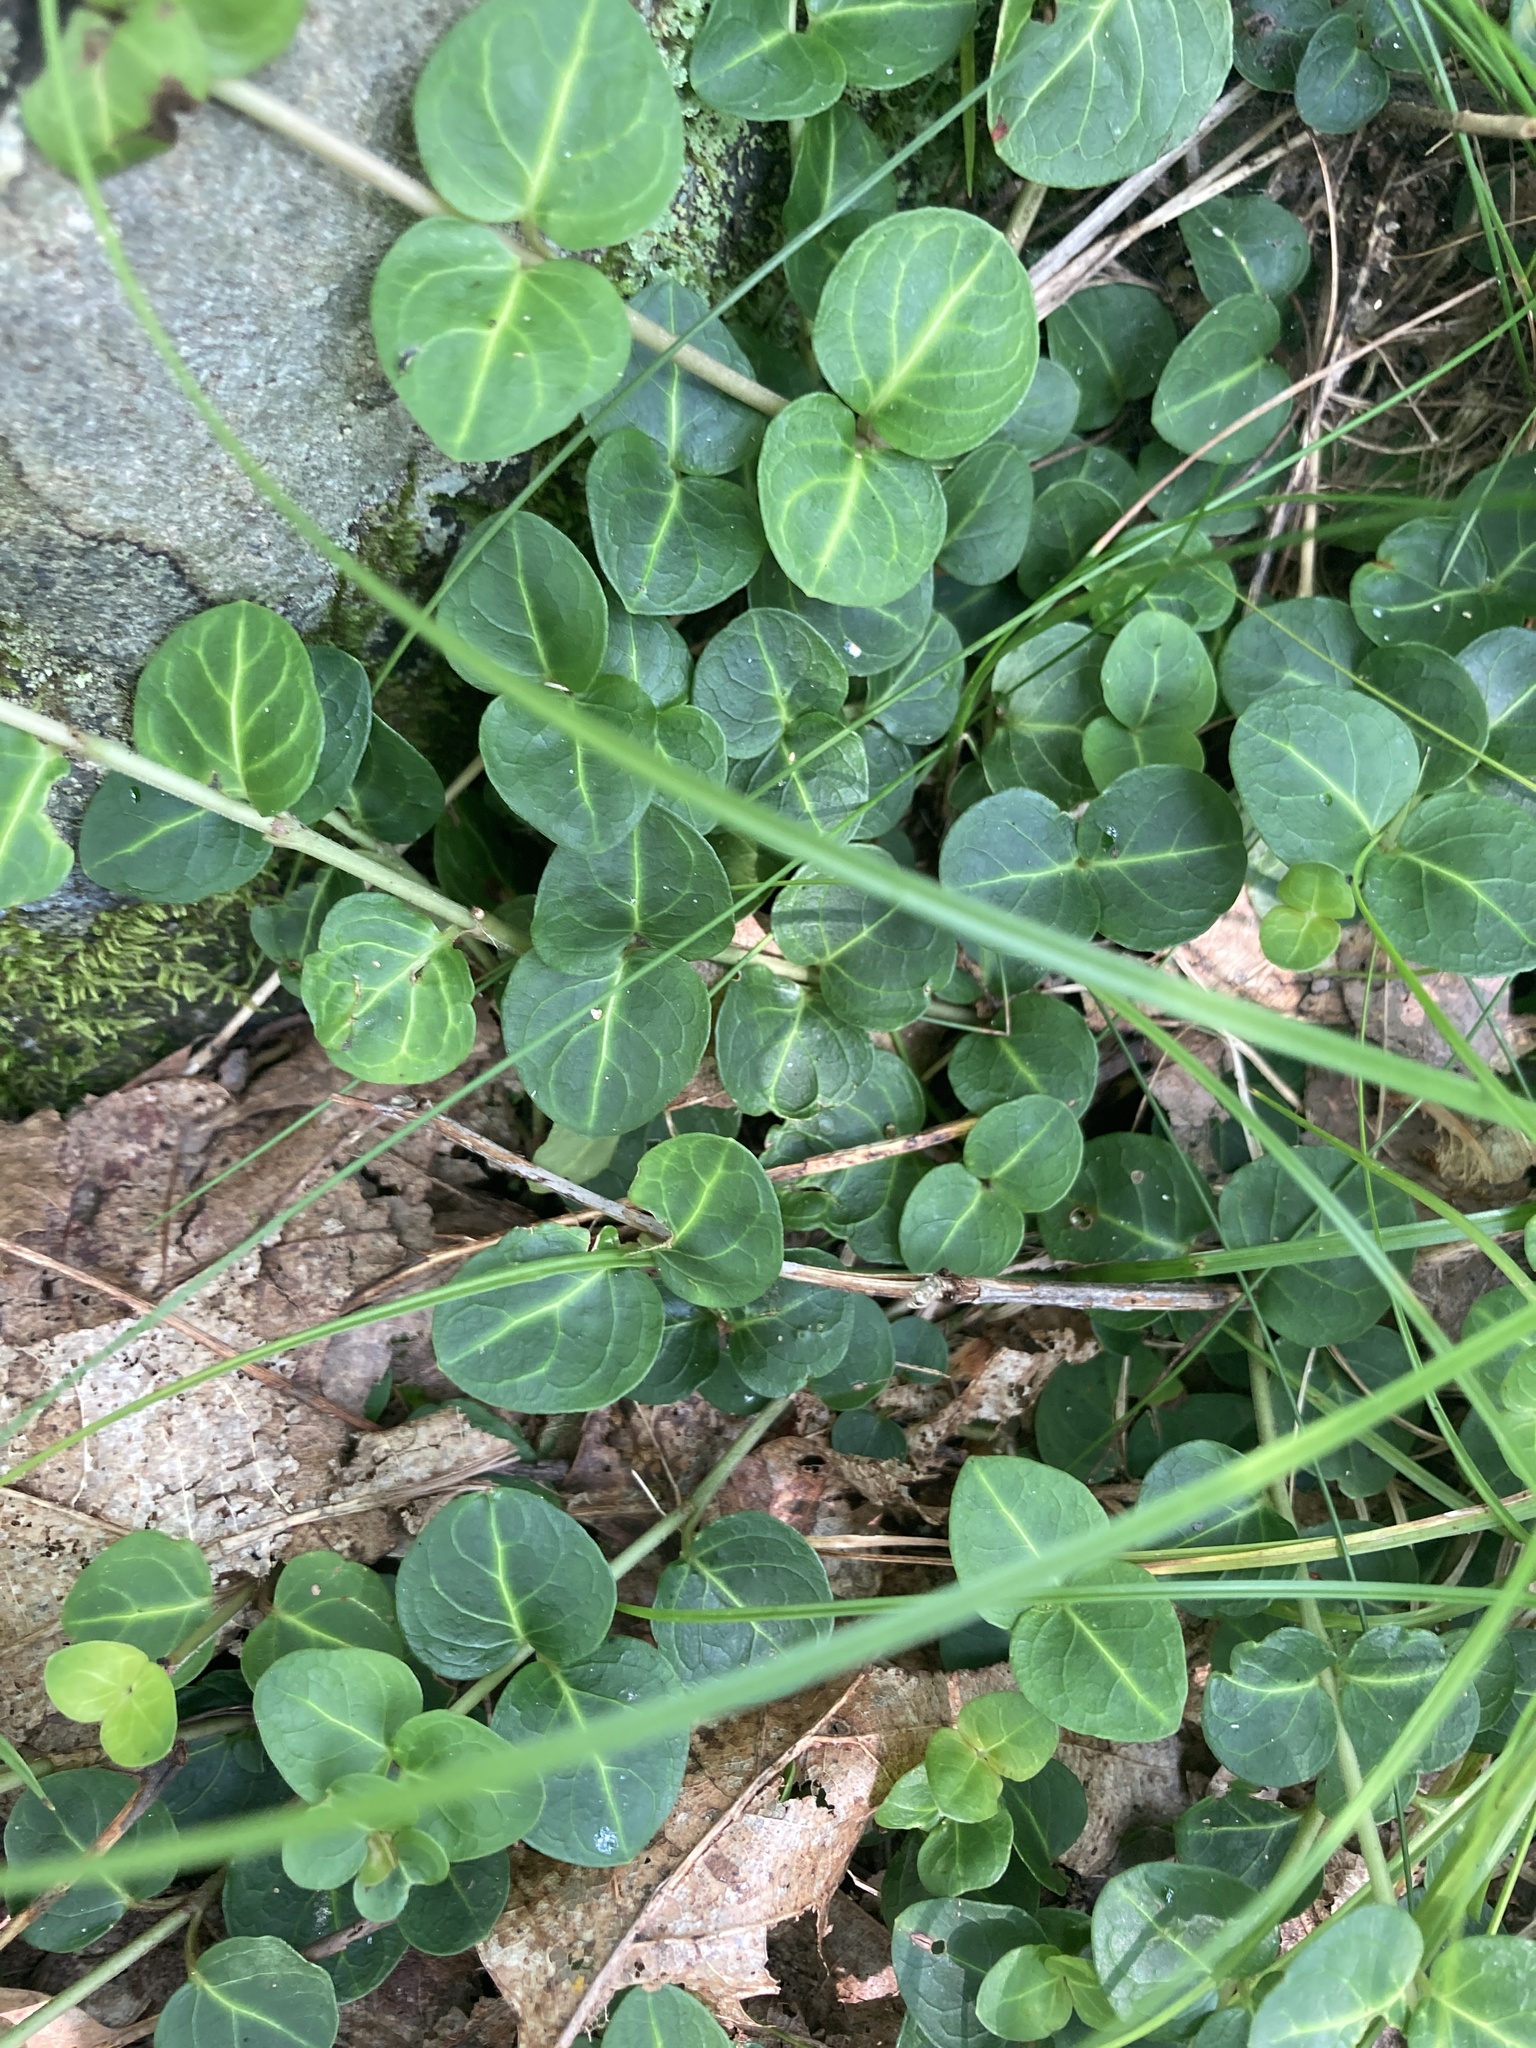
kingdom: Plantae
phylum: Tracheophyta
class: Magnoliopsida
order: Gentianales
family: Rubiaceae
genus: Mitchella
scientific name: Mitchella repens
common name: Partridge-berry
